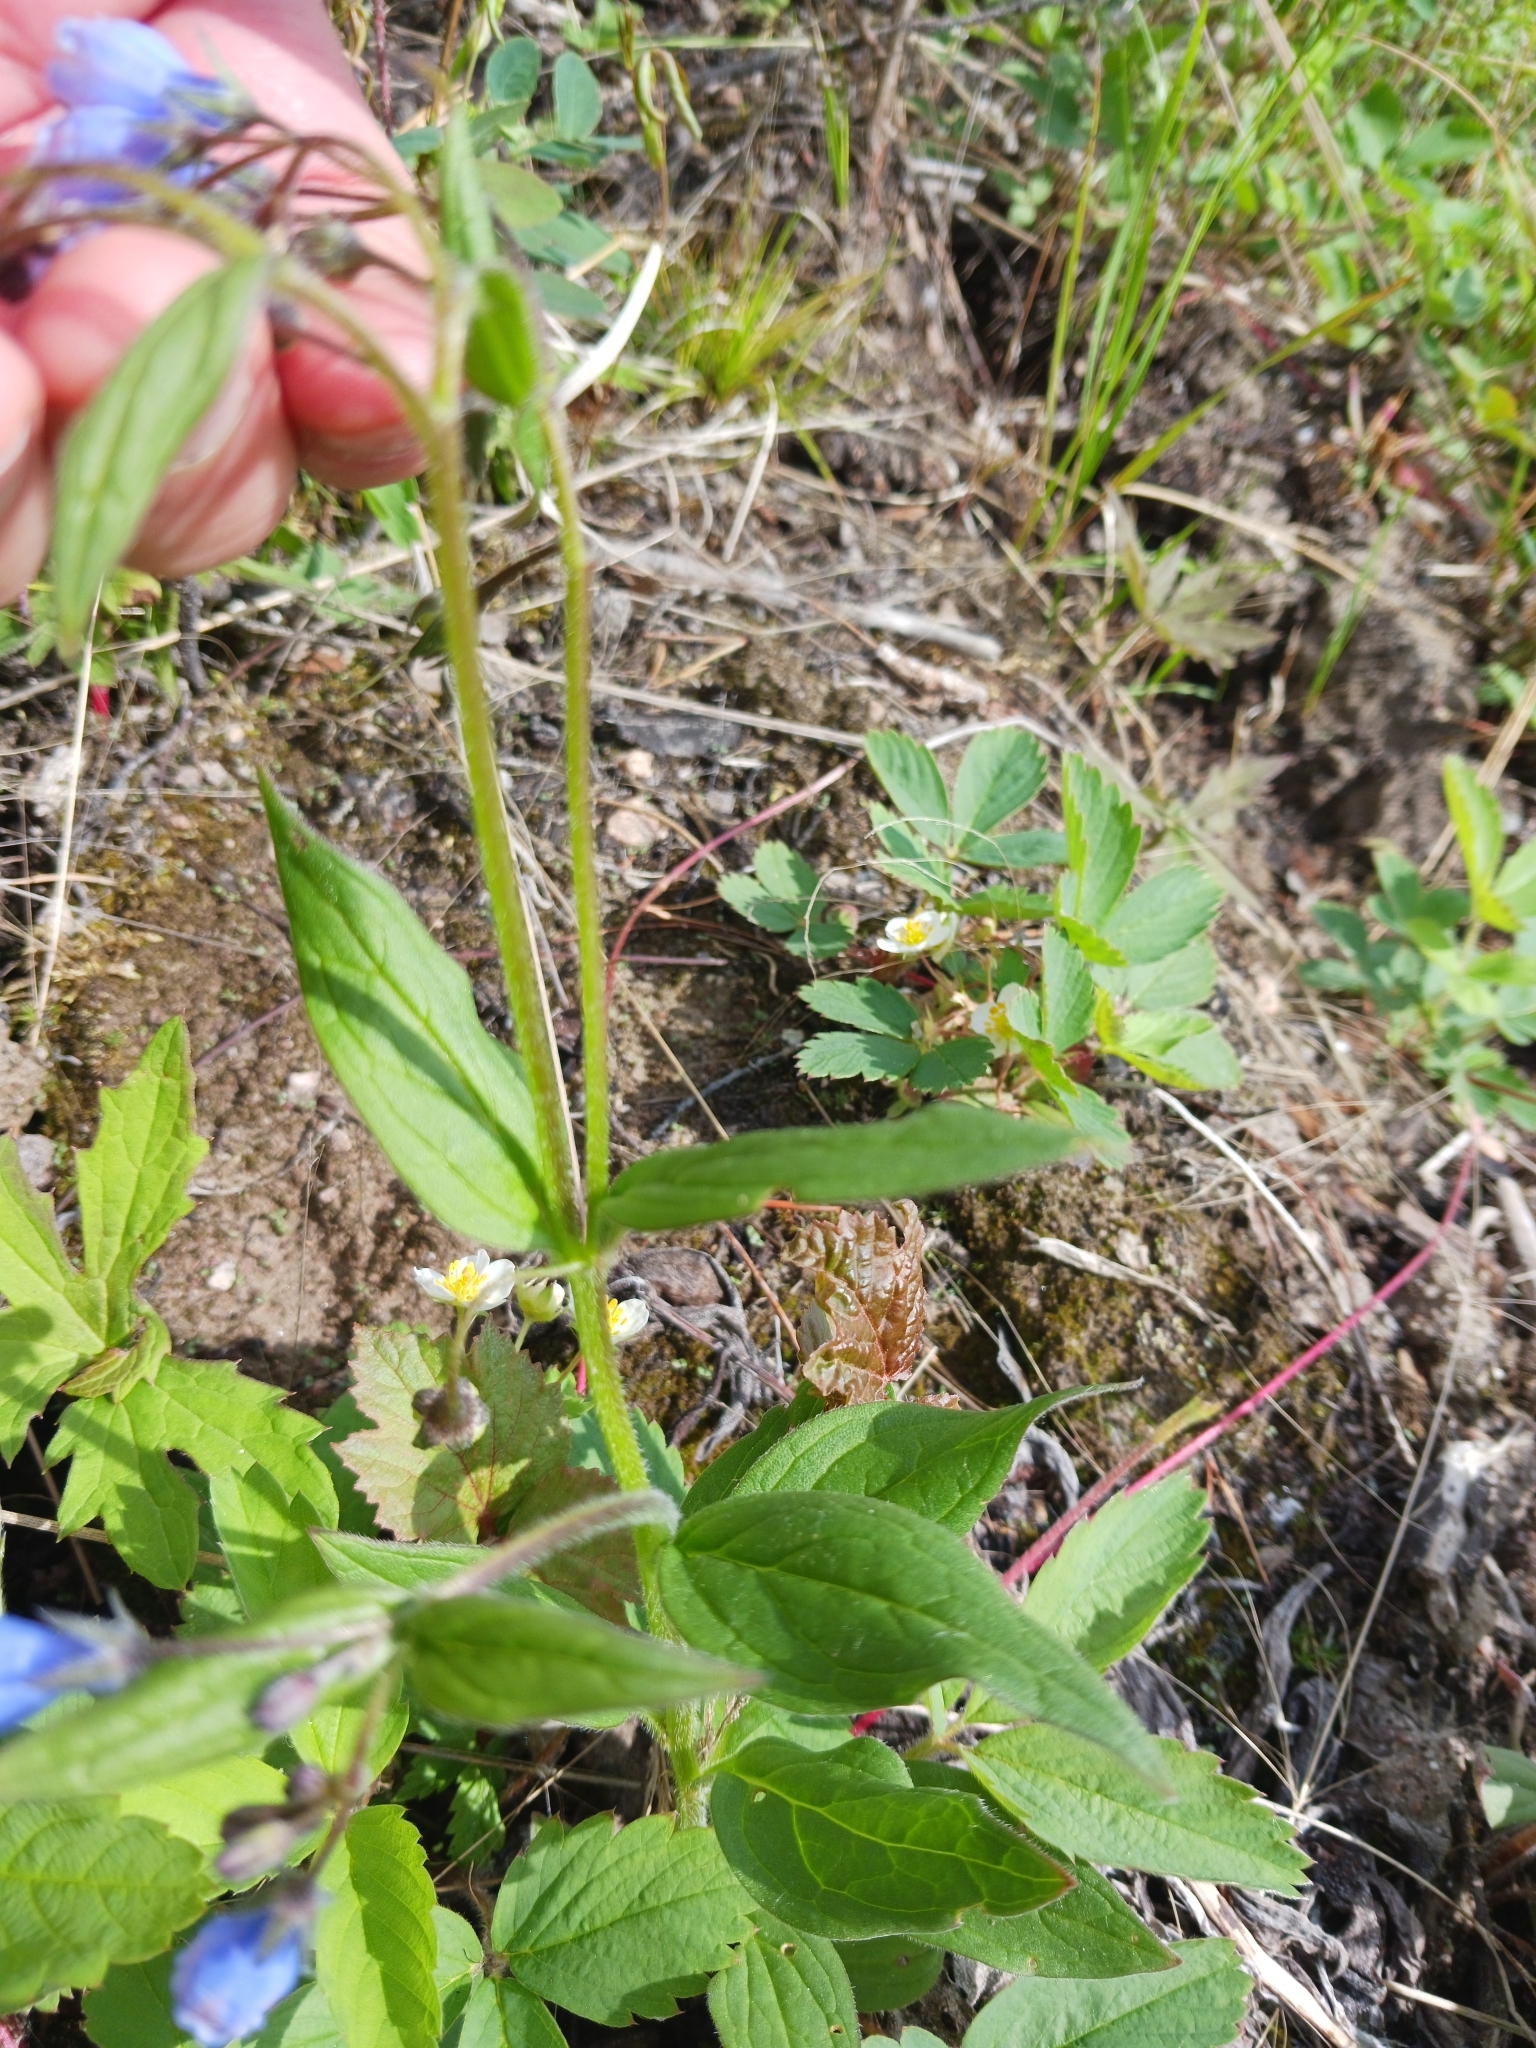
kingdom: Plantae
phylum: Tracheophyta
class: Magnoliopsida
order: Boraginales
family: Boraginaceae
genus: Mertensia
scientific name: Mertensia paniculata
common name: Panicled bluebells
